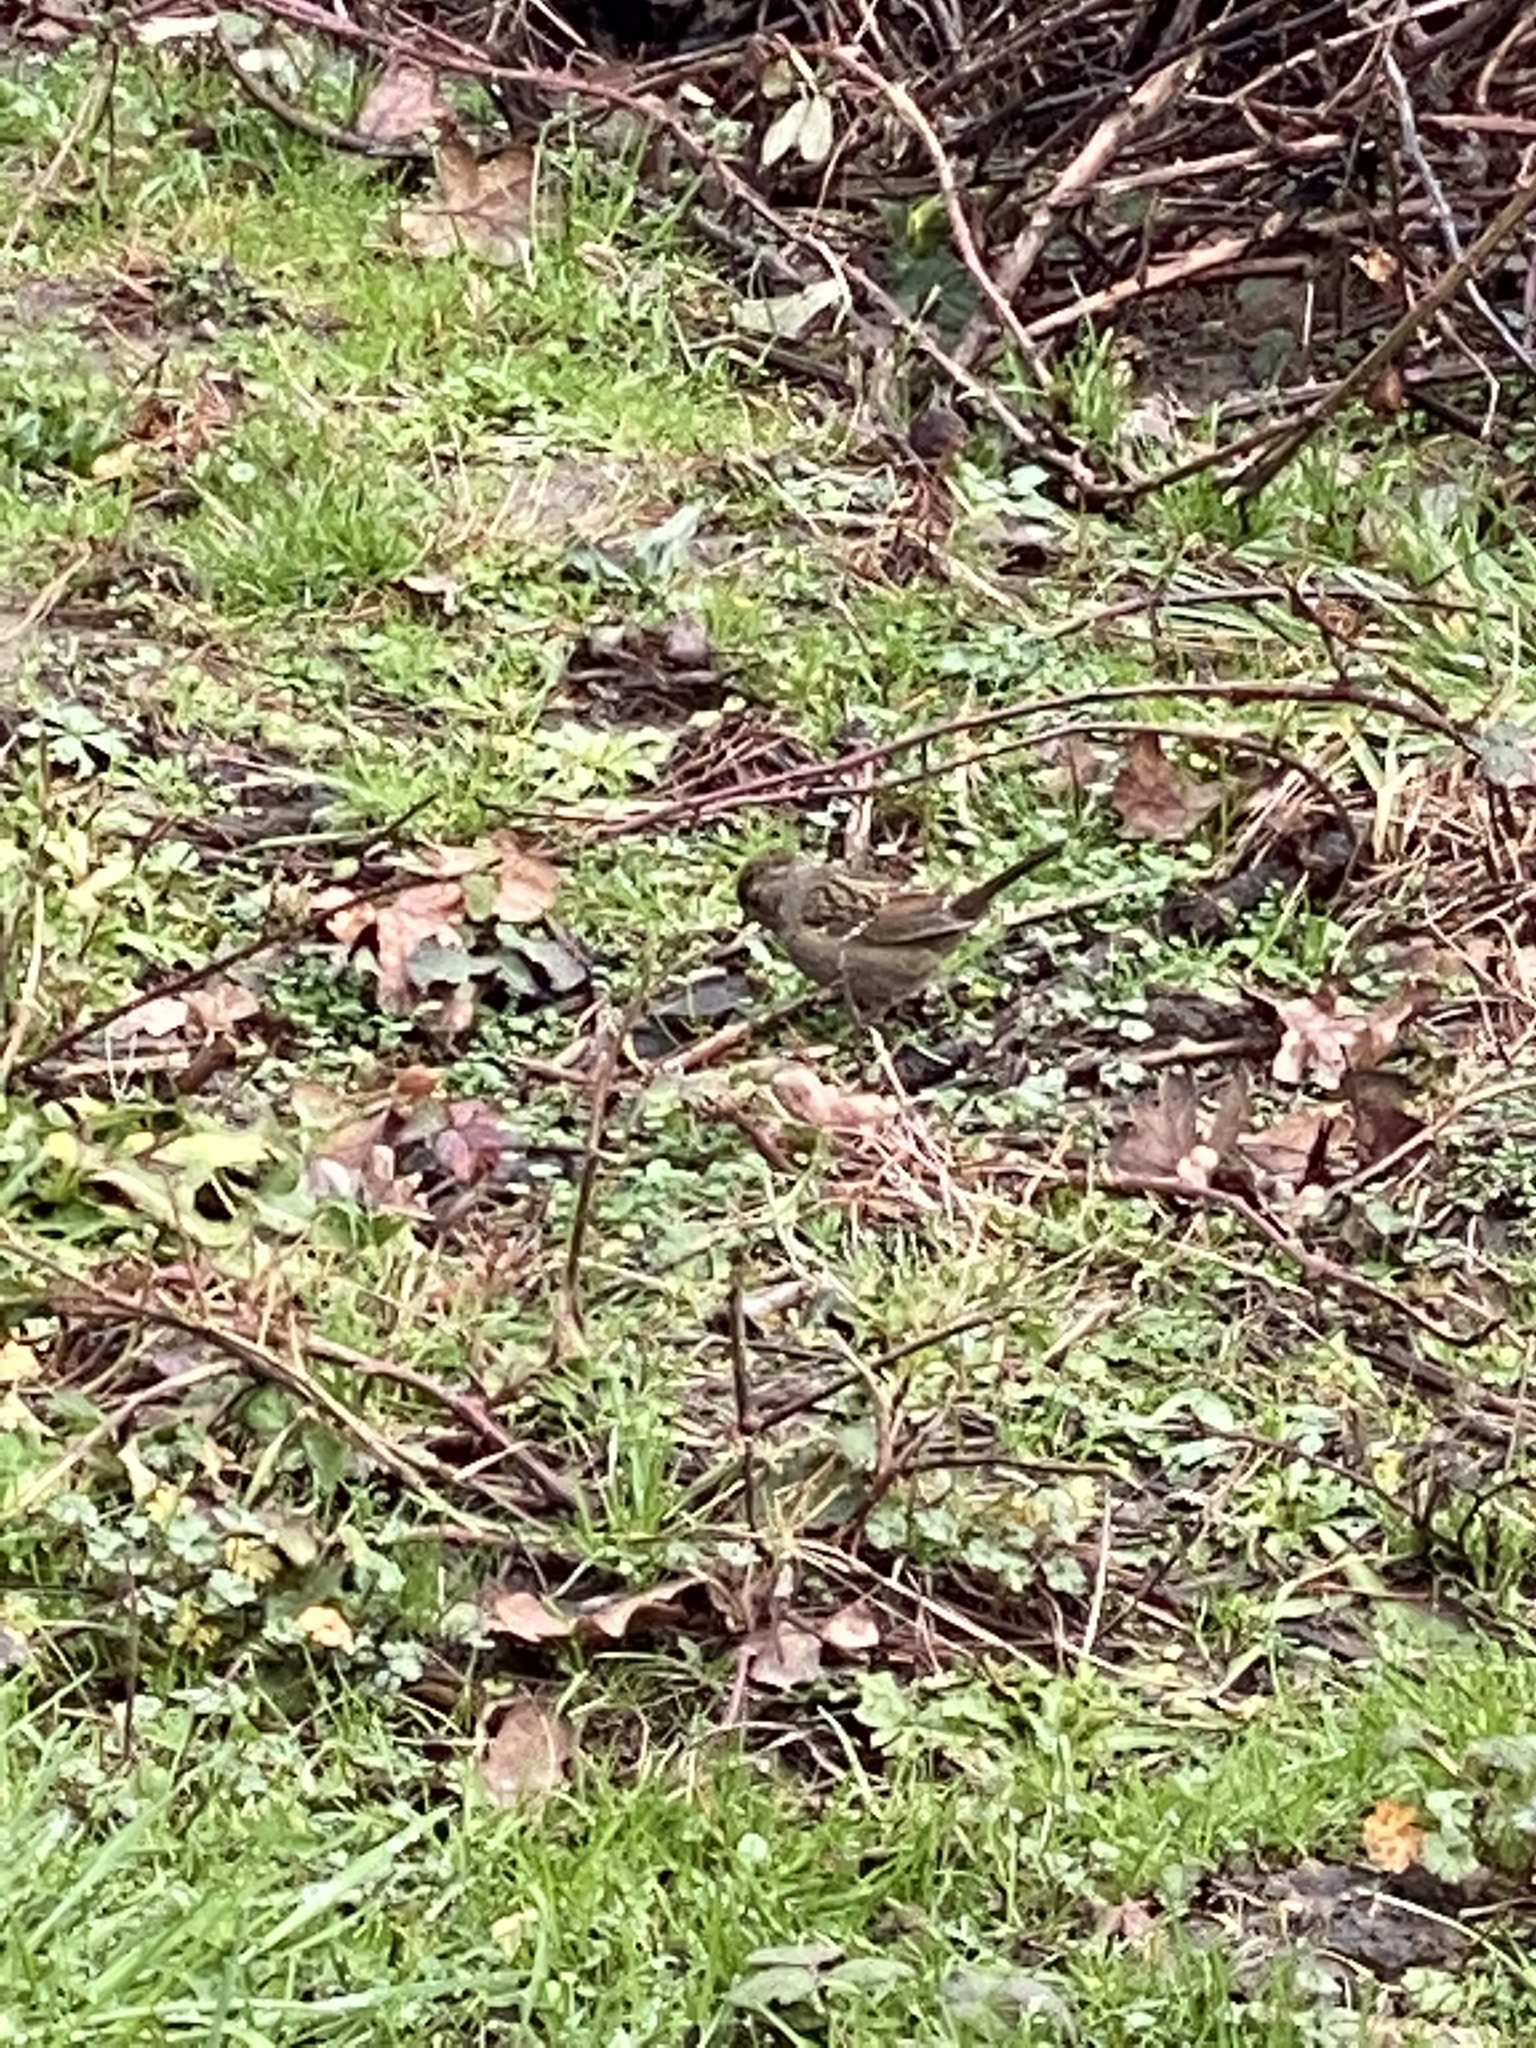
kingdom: Animalia
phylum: Chordata
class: Aves
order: Passeriformes
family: Passerellidae
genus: Zonotrichia
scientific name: Zonotrichia atricapilla
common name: Golden-crowned sparrow
